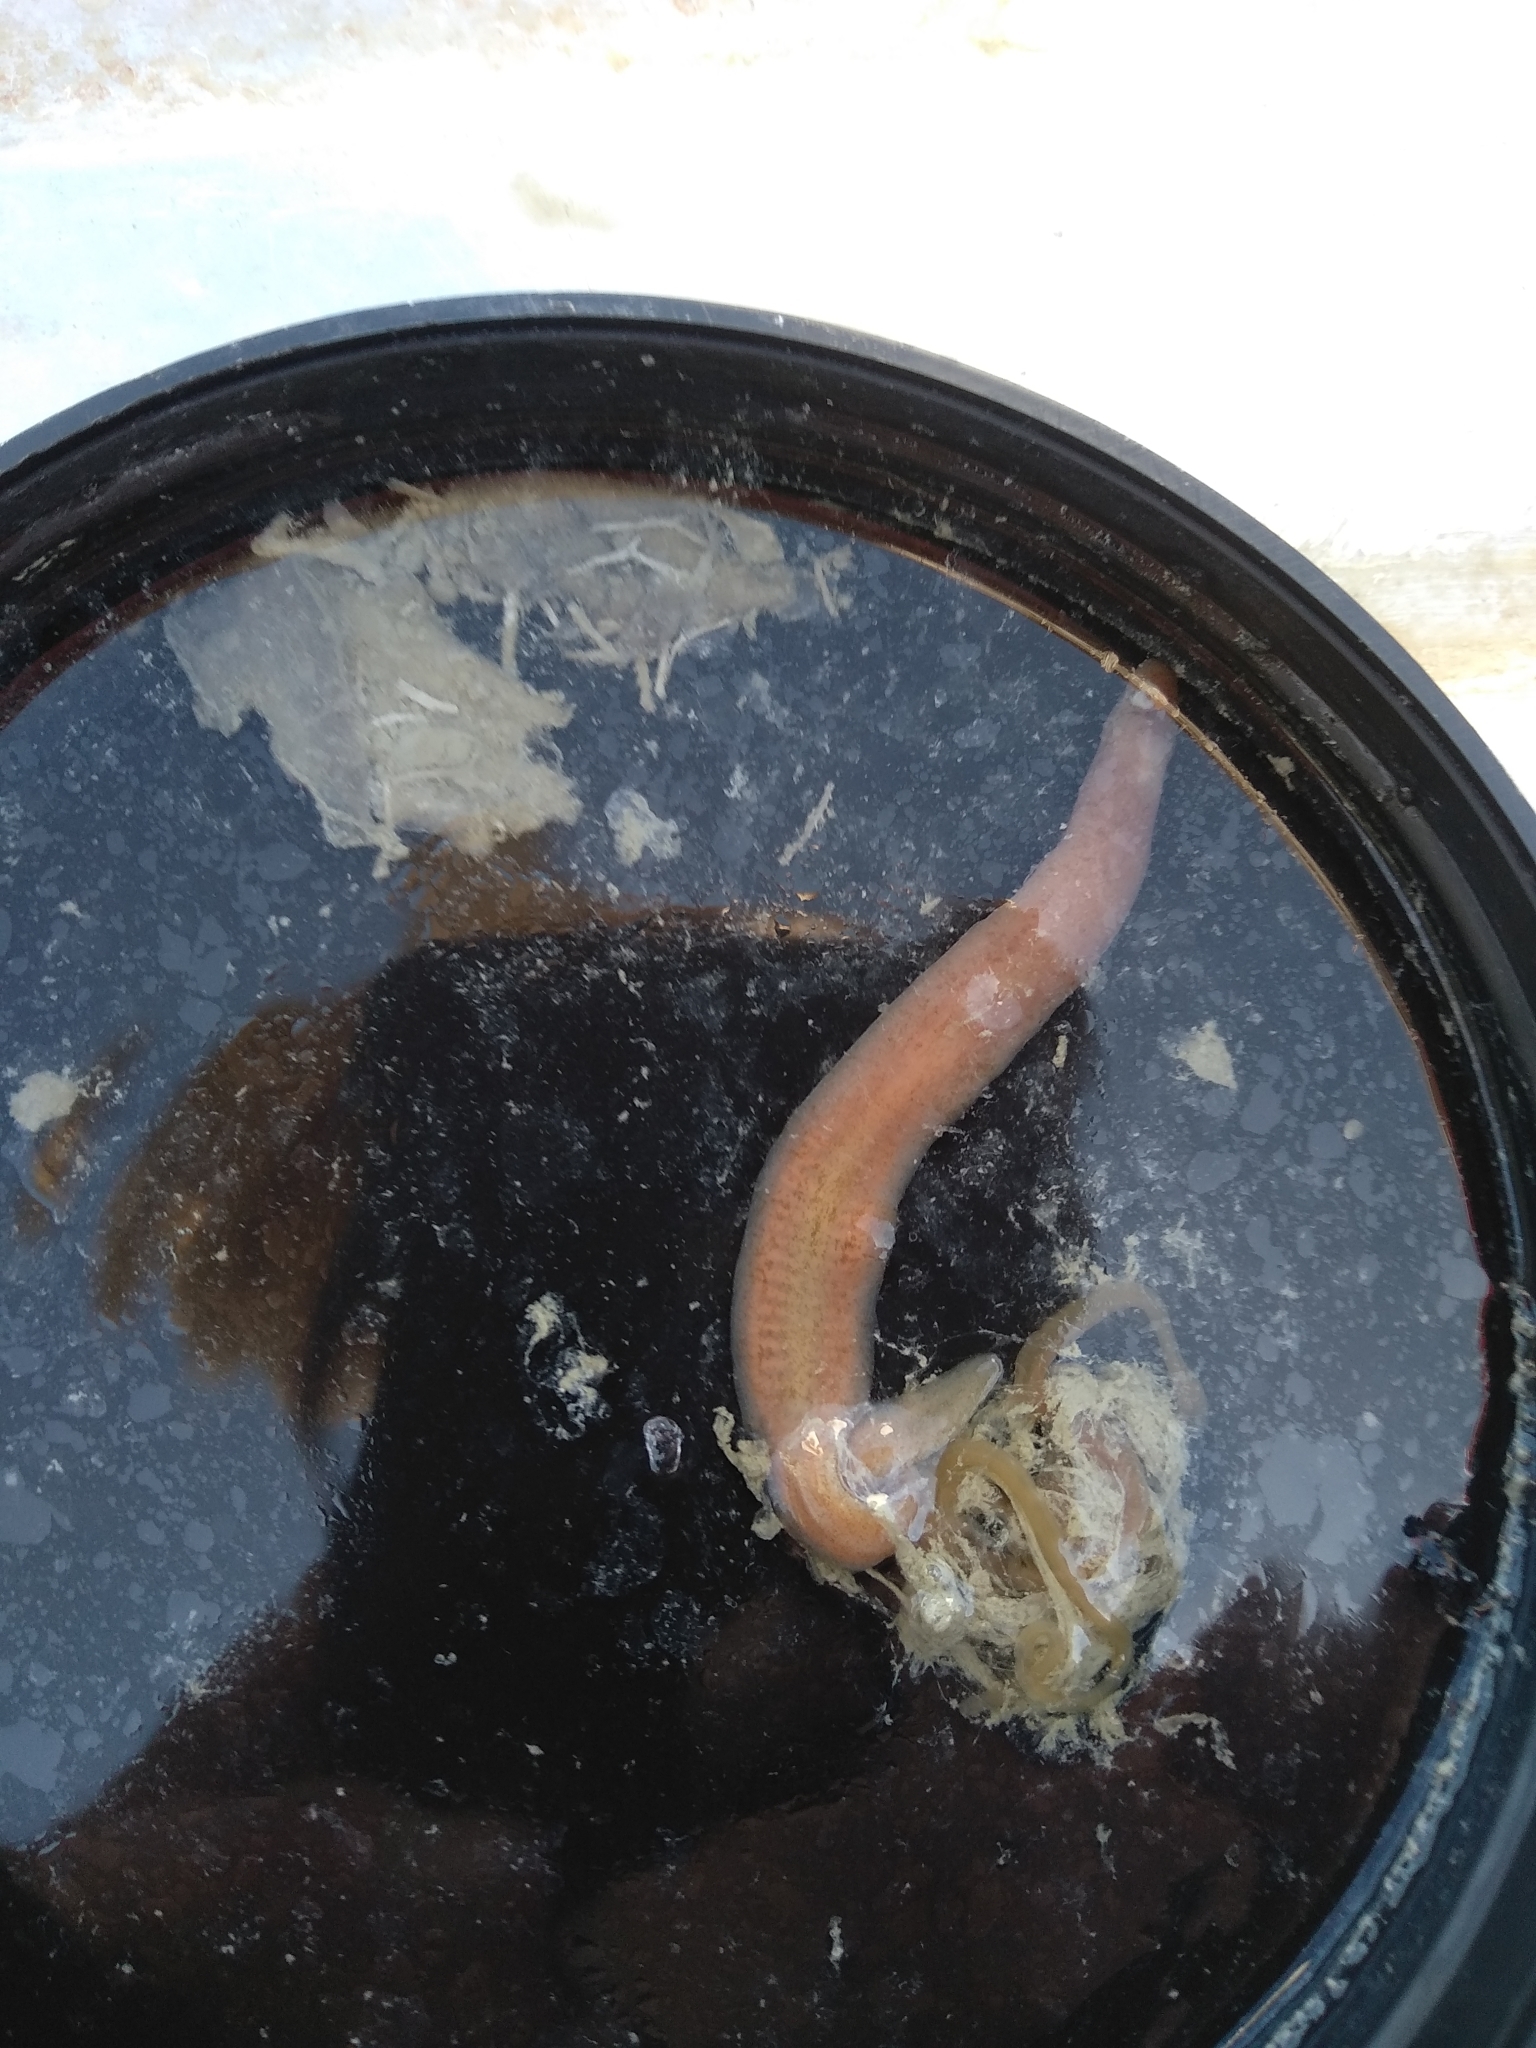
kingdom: Animalia
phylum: Echinodermata
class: Holothuroidea
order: Apodida
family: Synaptidae
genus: Oestergrenia
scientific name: Oestergrenia digitata
